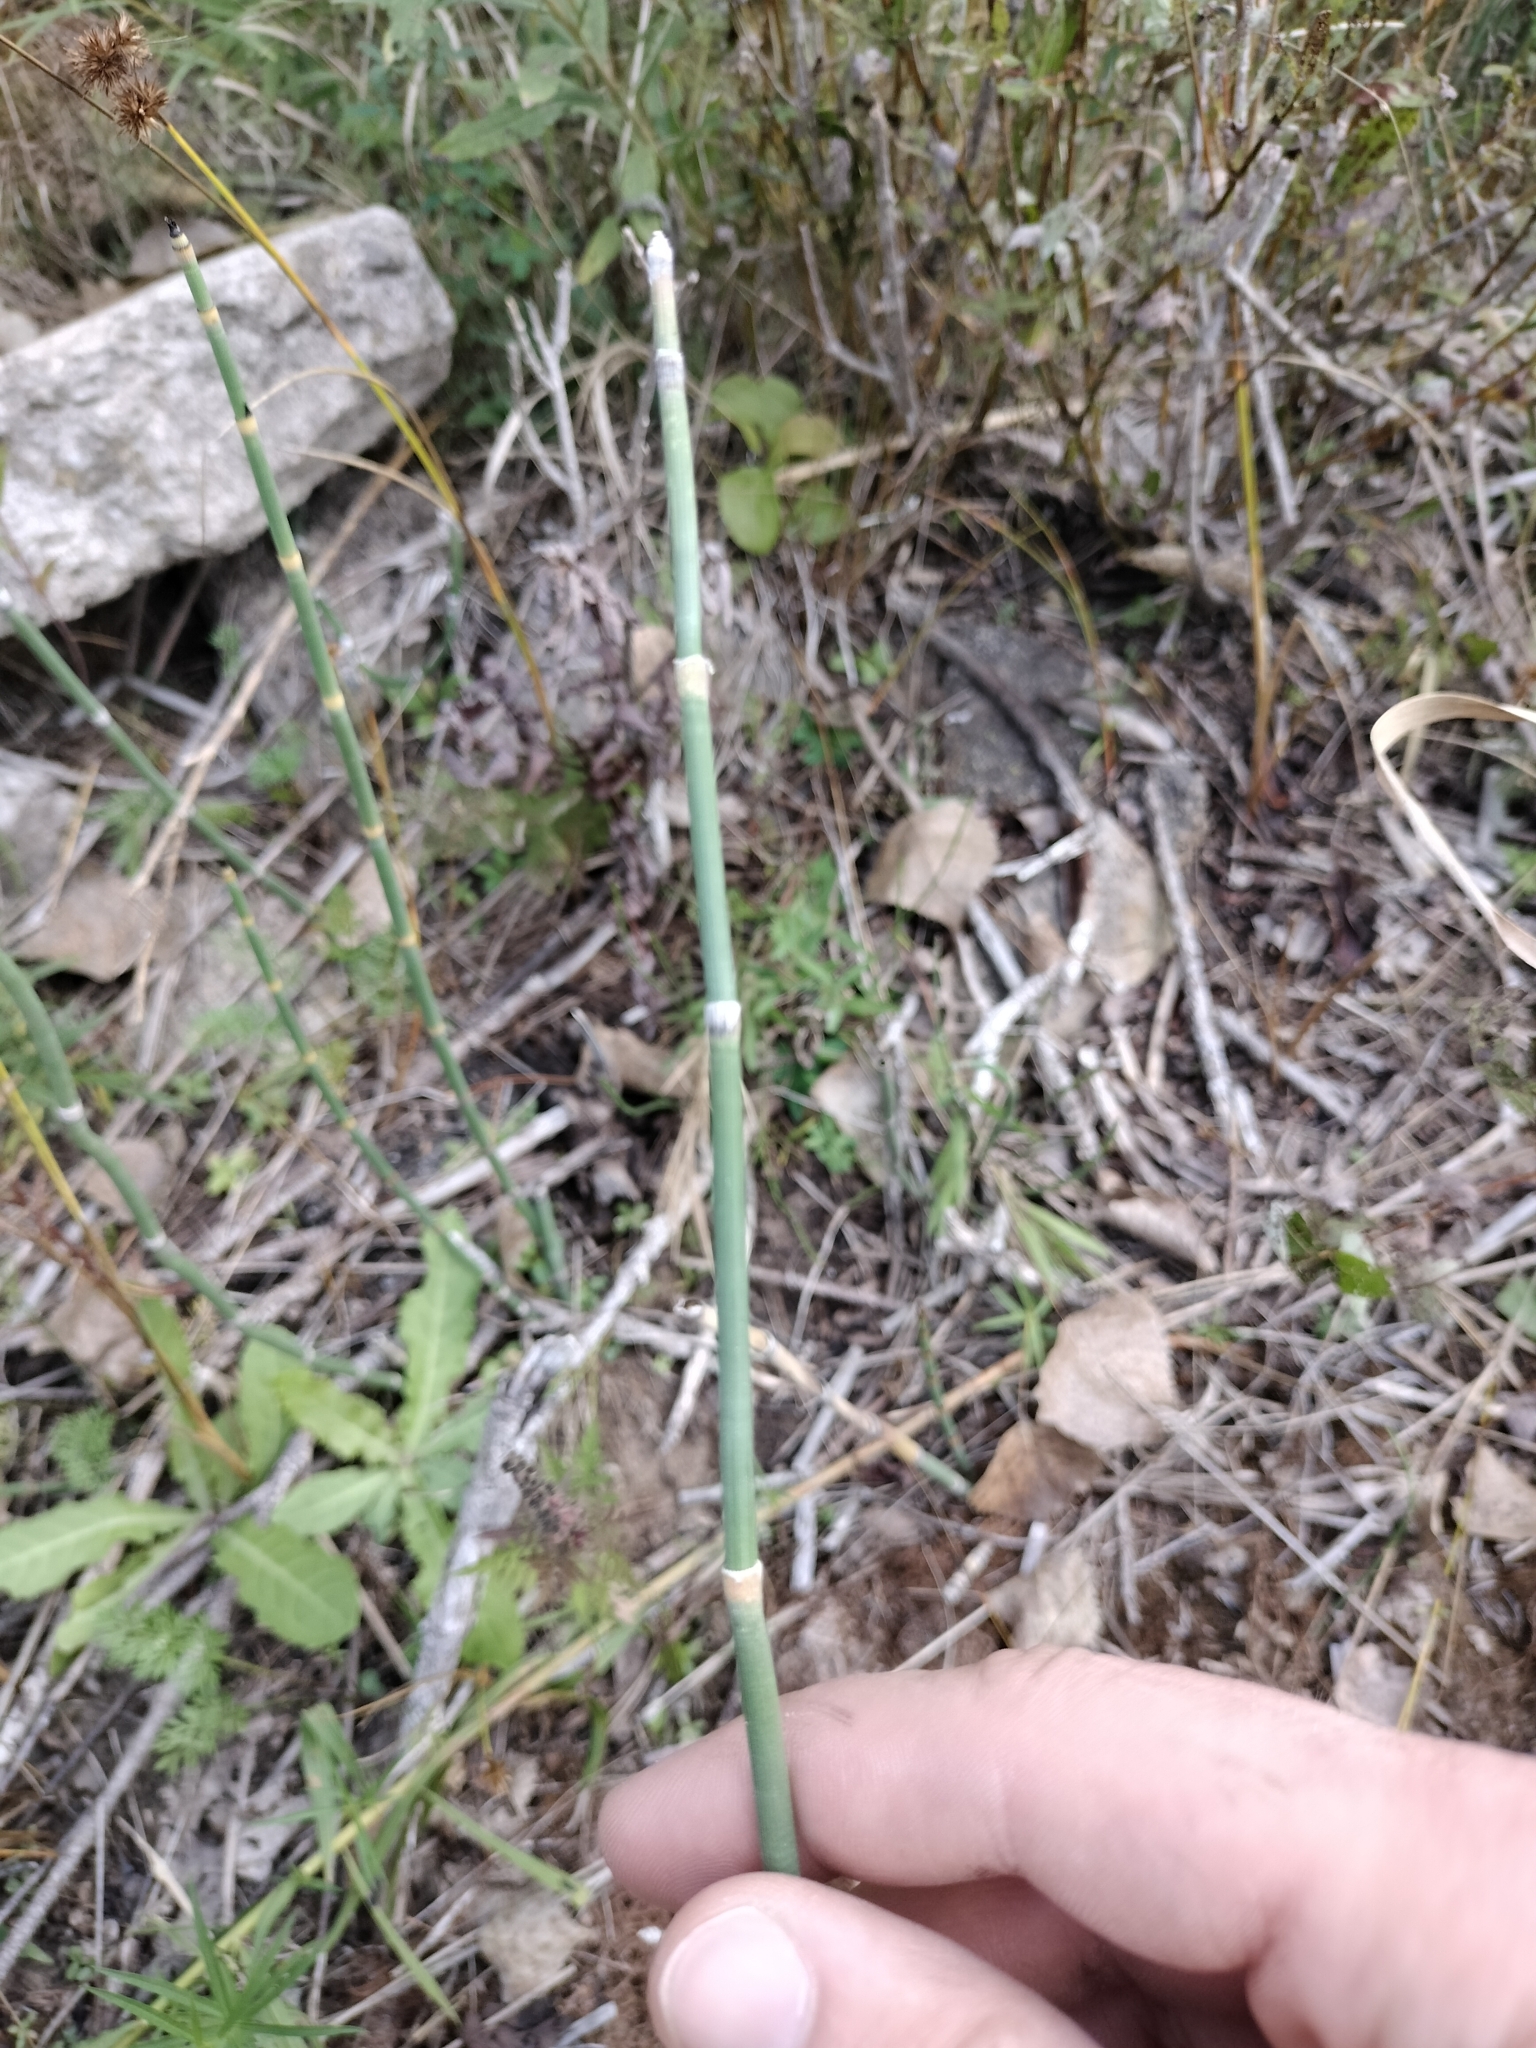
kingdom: Plantae
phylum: Tracheophyta
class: Polypodiopsida
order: Equisetales
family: Equisetaceae
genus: Equisetum
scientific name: Equisetum hyemale
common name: Rough horsetail
